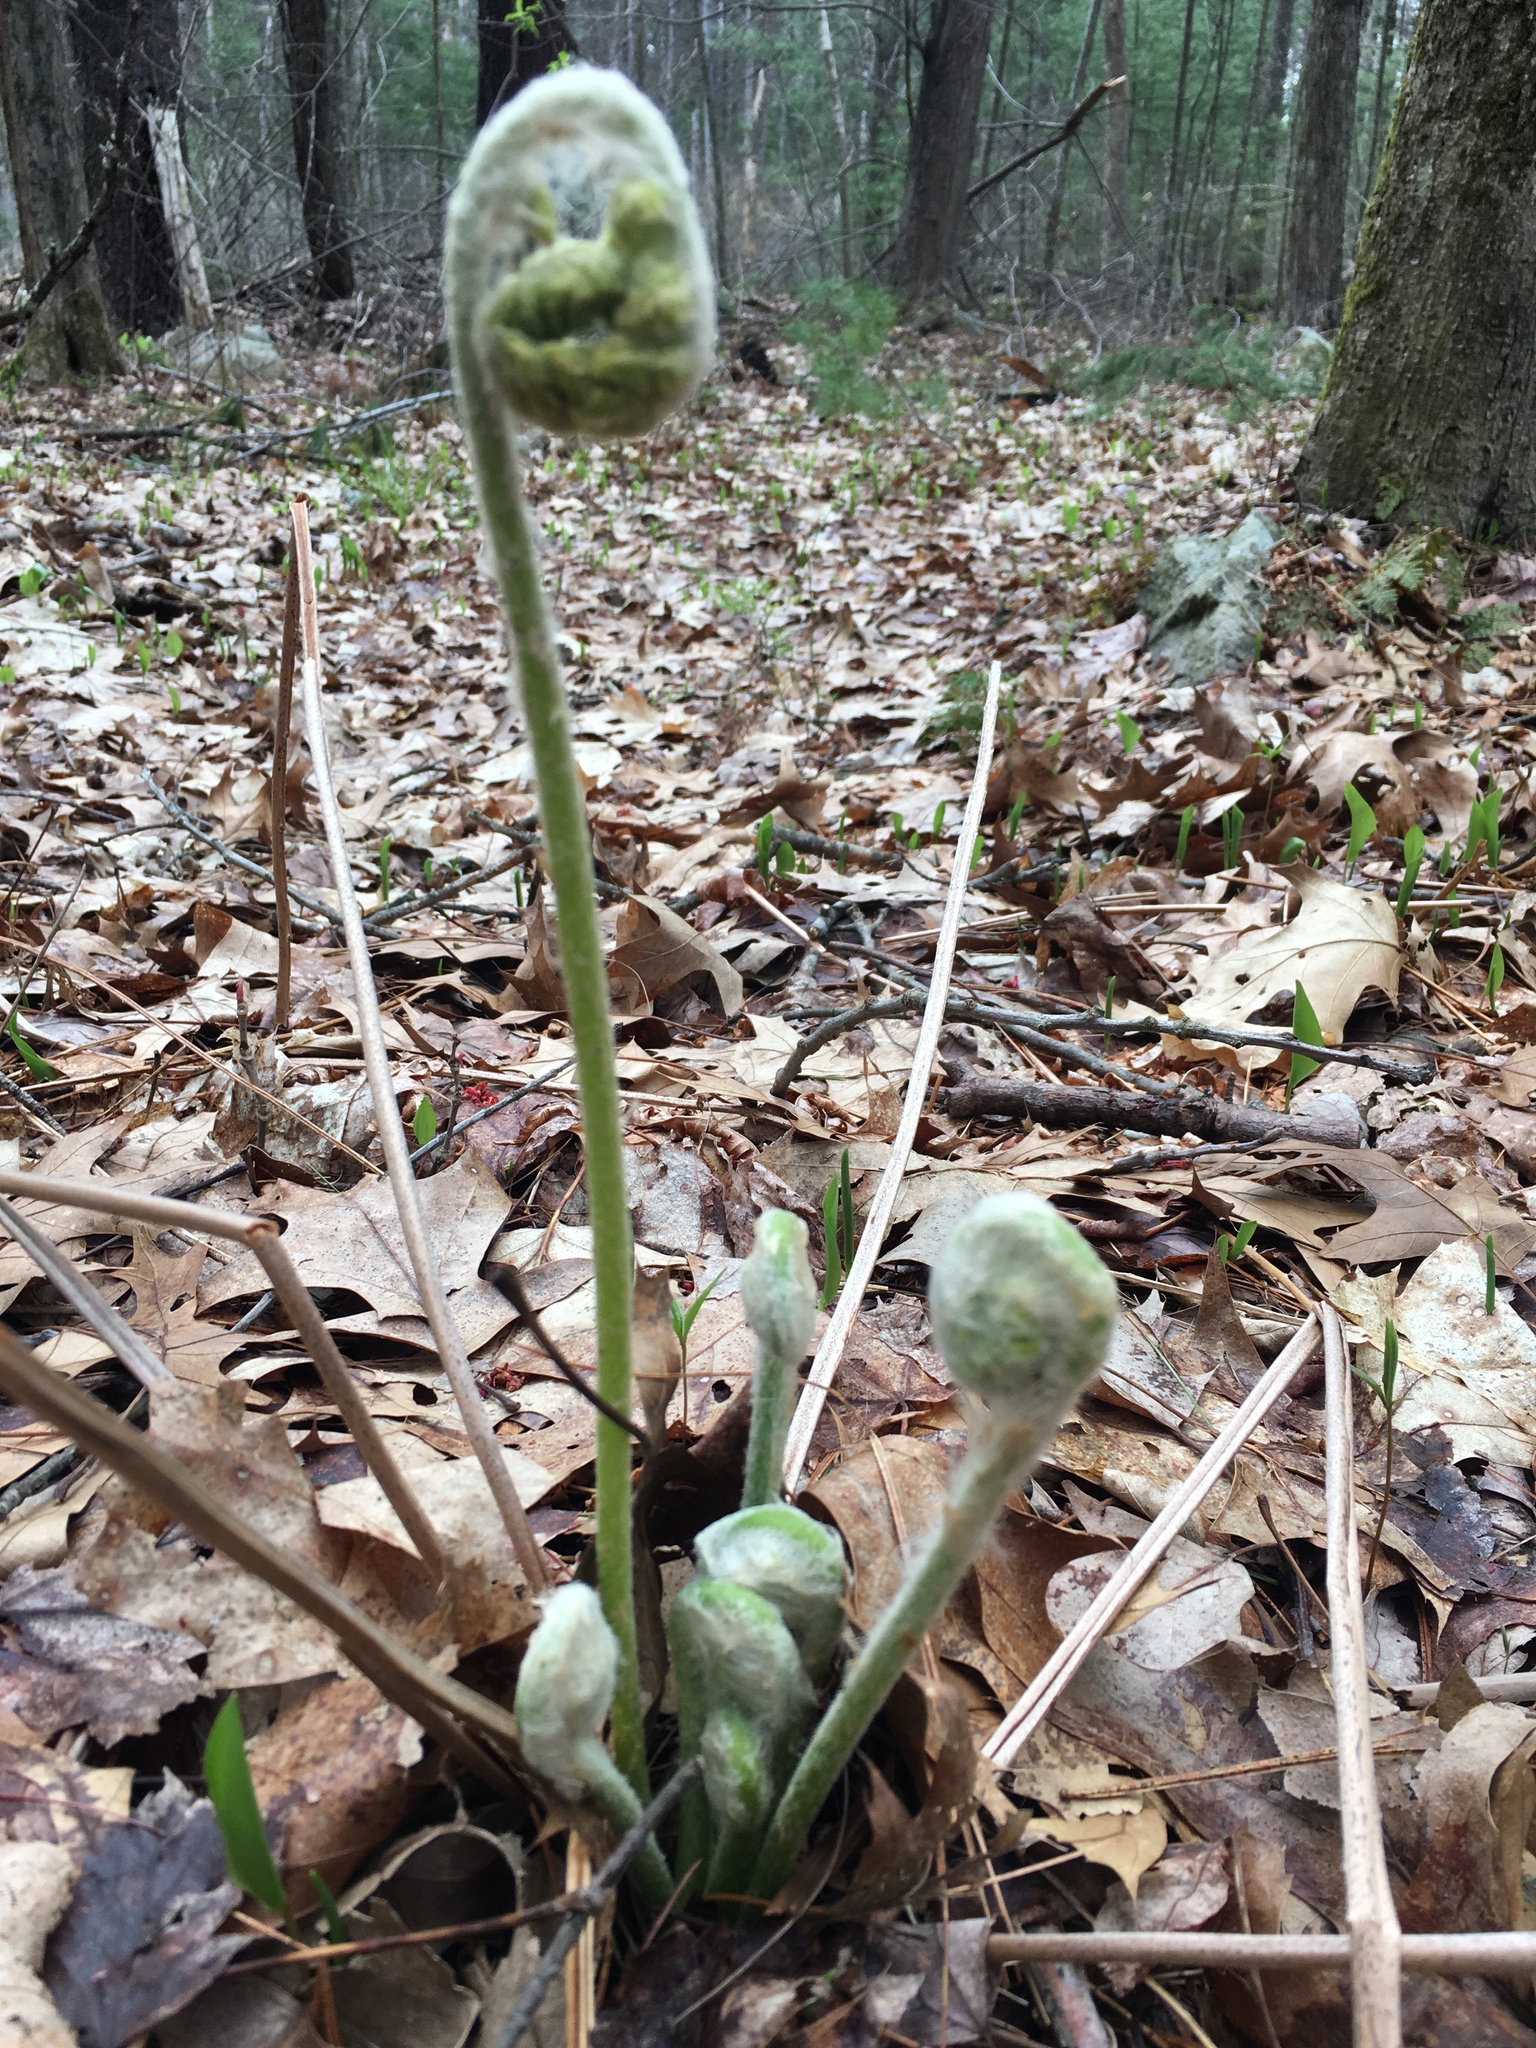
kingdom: Plantae
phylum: Tracheophyta
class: Polypodiopsida
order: Osmundales
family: Osmundaceae
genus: Osmundastrum
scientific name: Osmundastrum cinnamomeum
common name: Cinnamon fern
